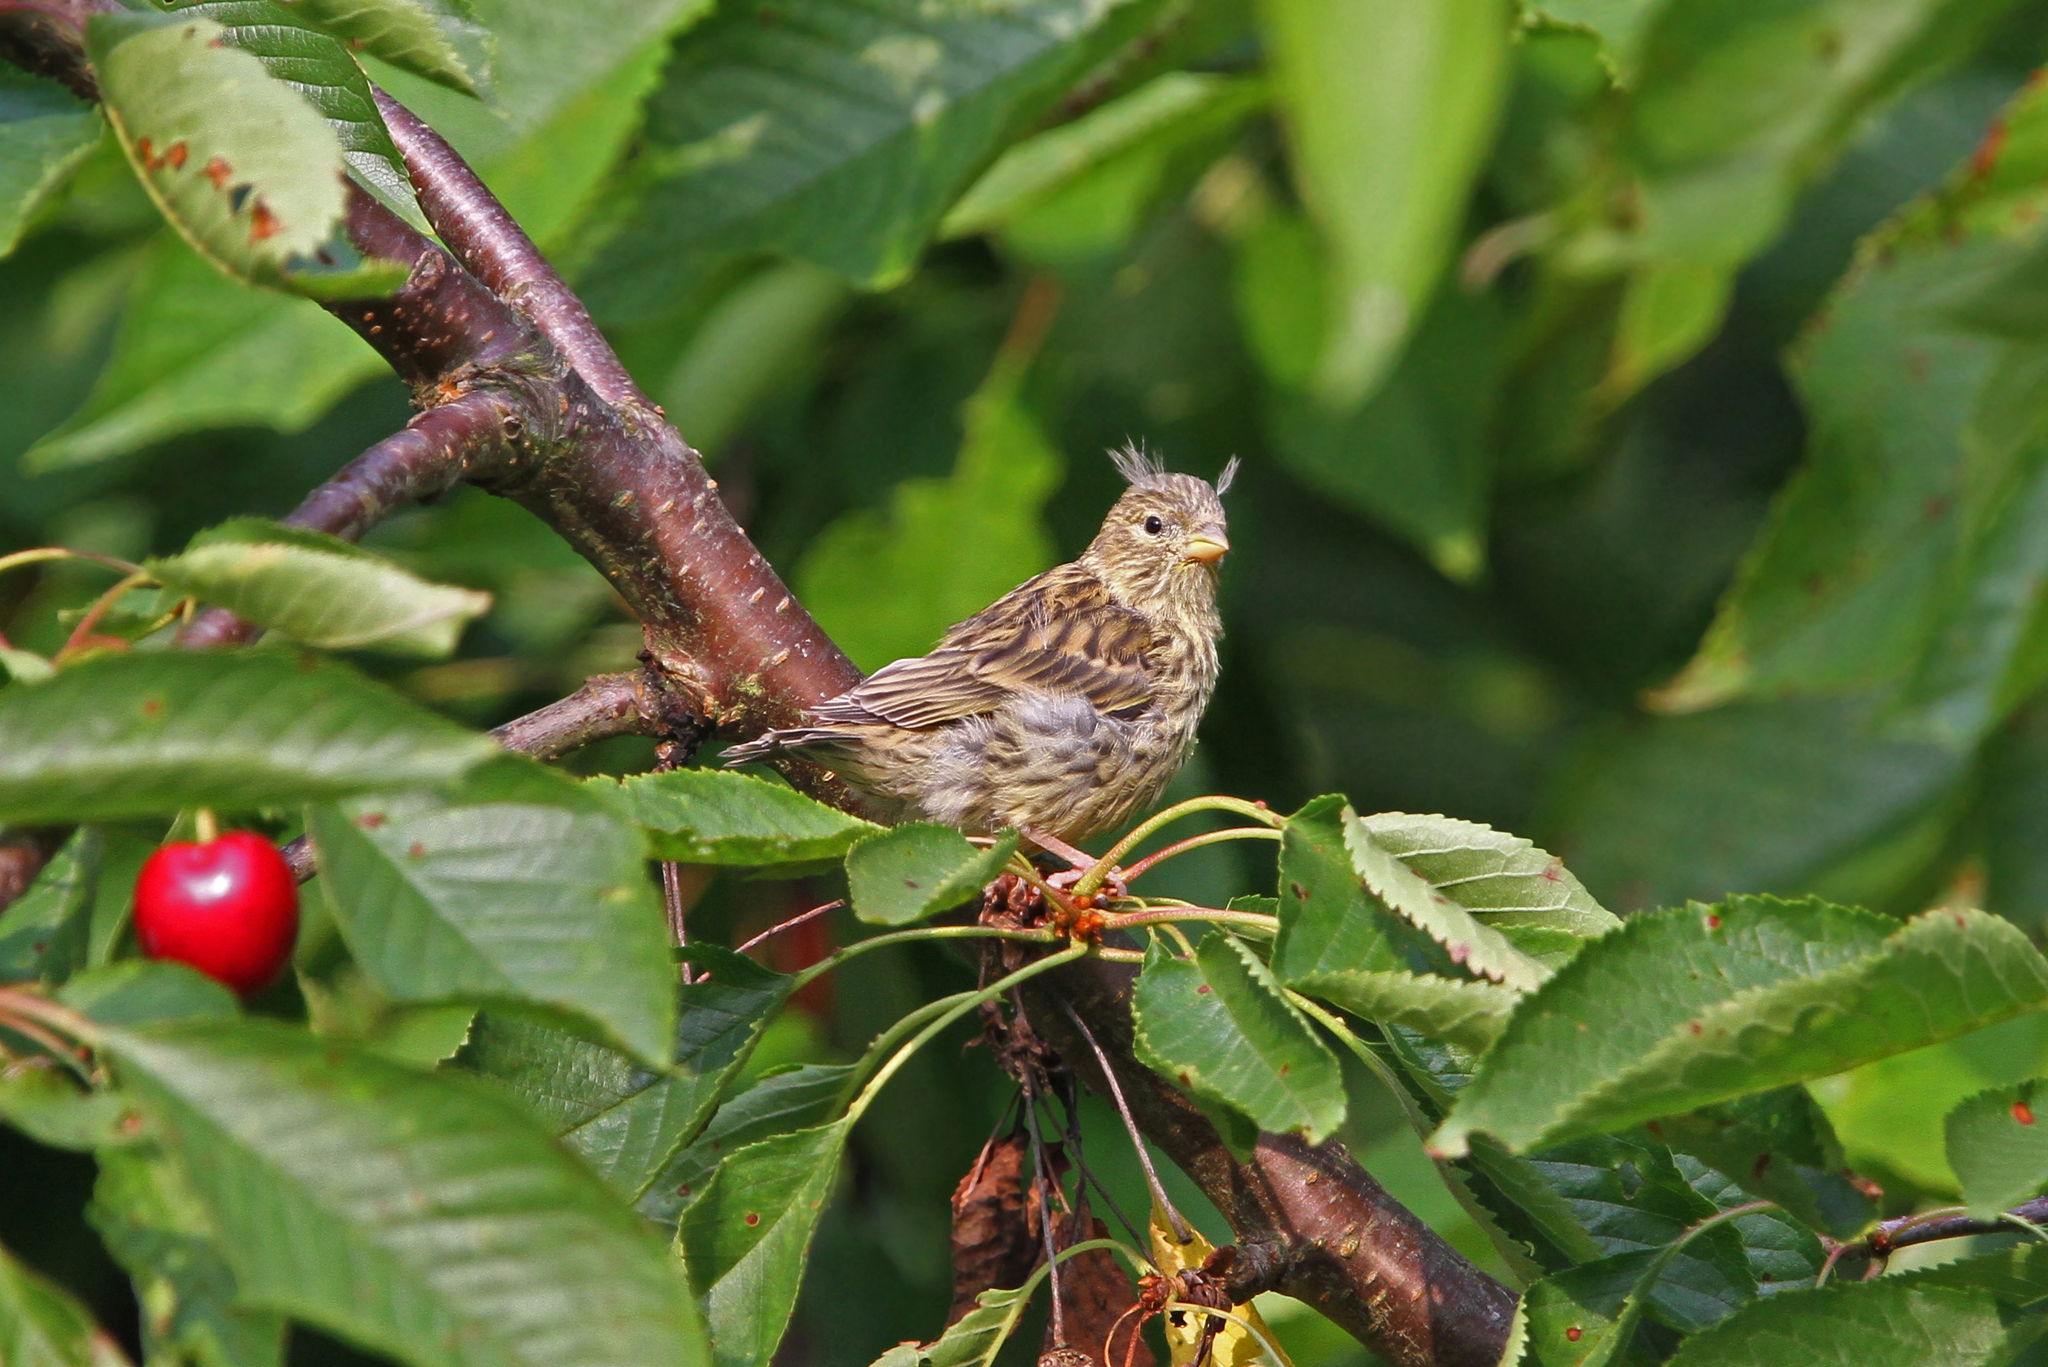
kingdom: Animalia
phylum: Chordata
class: Aves
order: Passeriformes
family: Fringillidae
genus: Serinus
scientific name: Serinus serinus
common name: European serin
